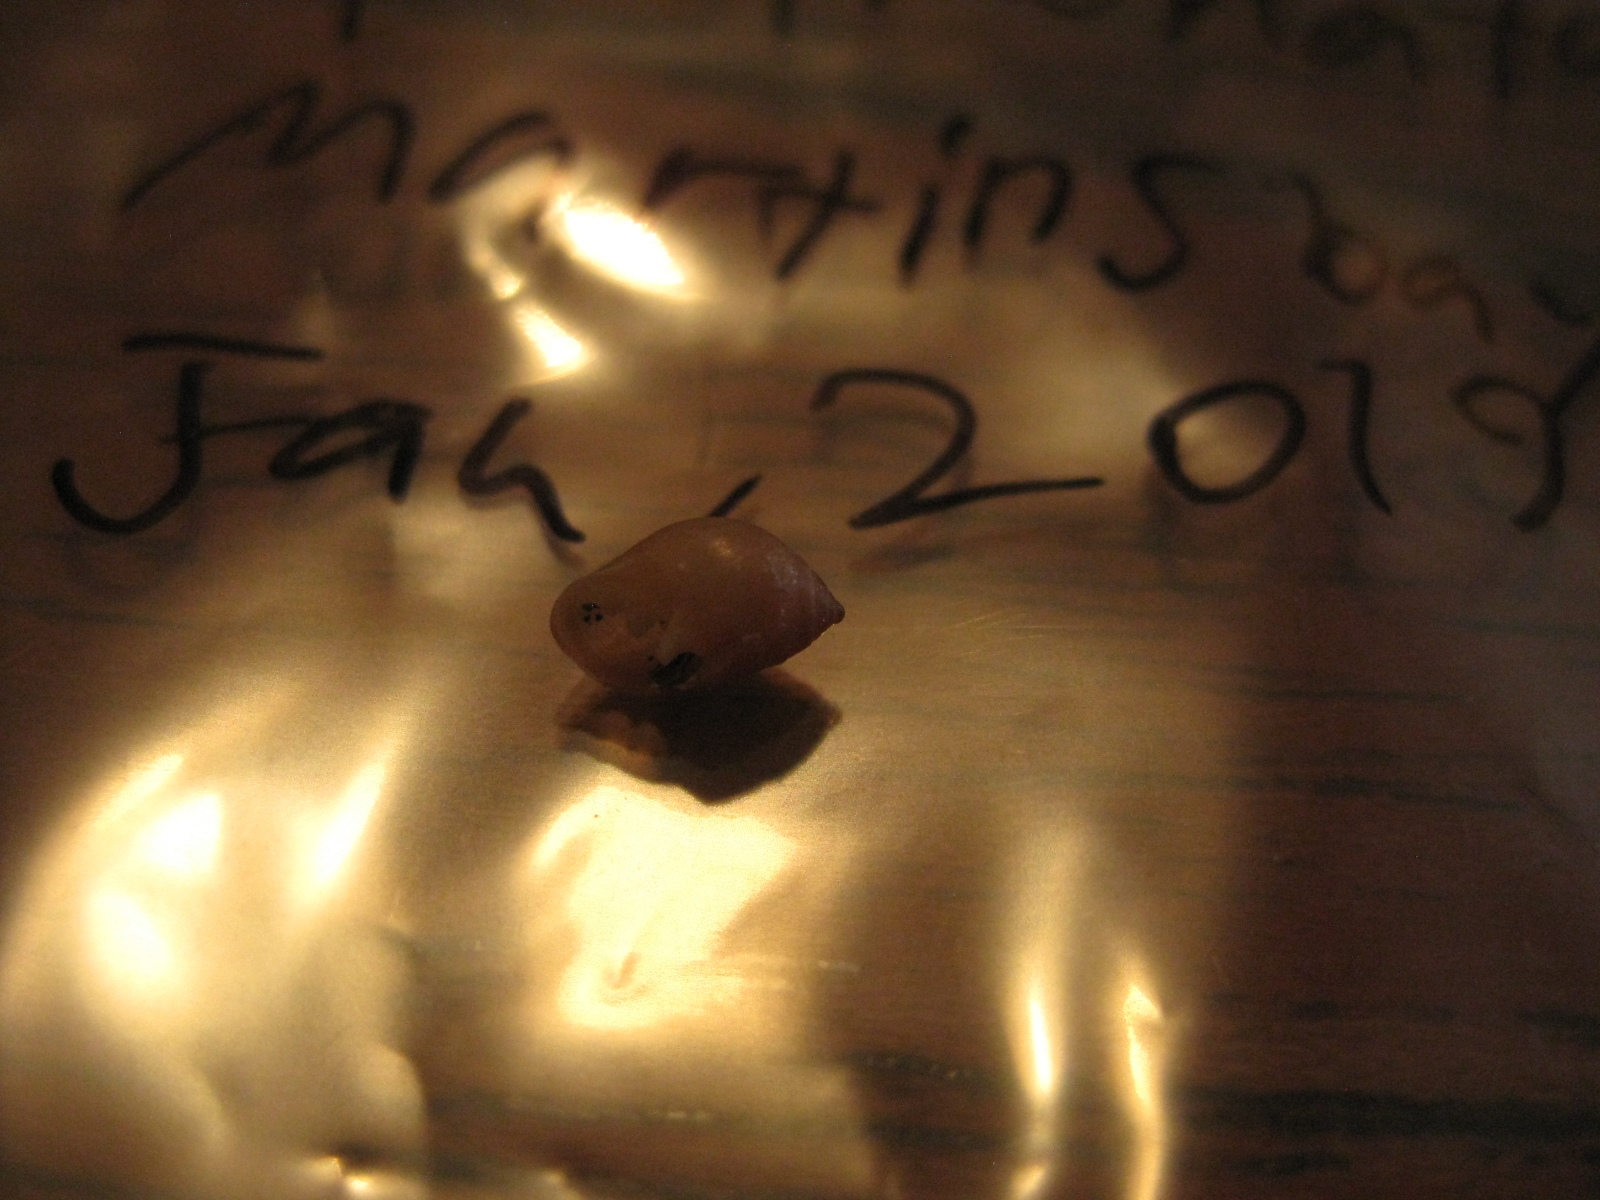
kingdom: Animalia
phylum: Mollusca
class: Gastropoda
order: Ellobiida
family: Ellobiidae
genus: Marinula
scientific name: Marinula filholi
